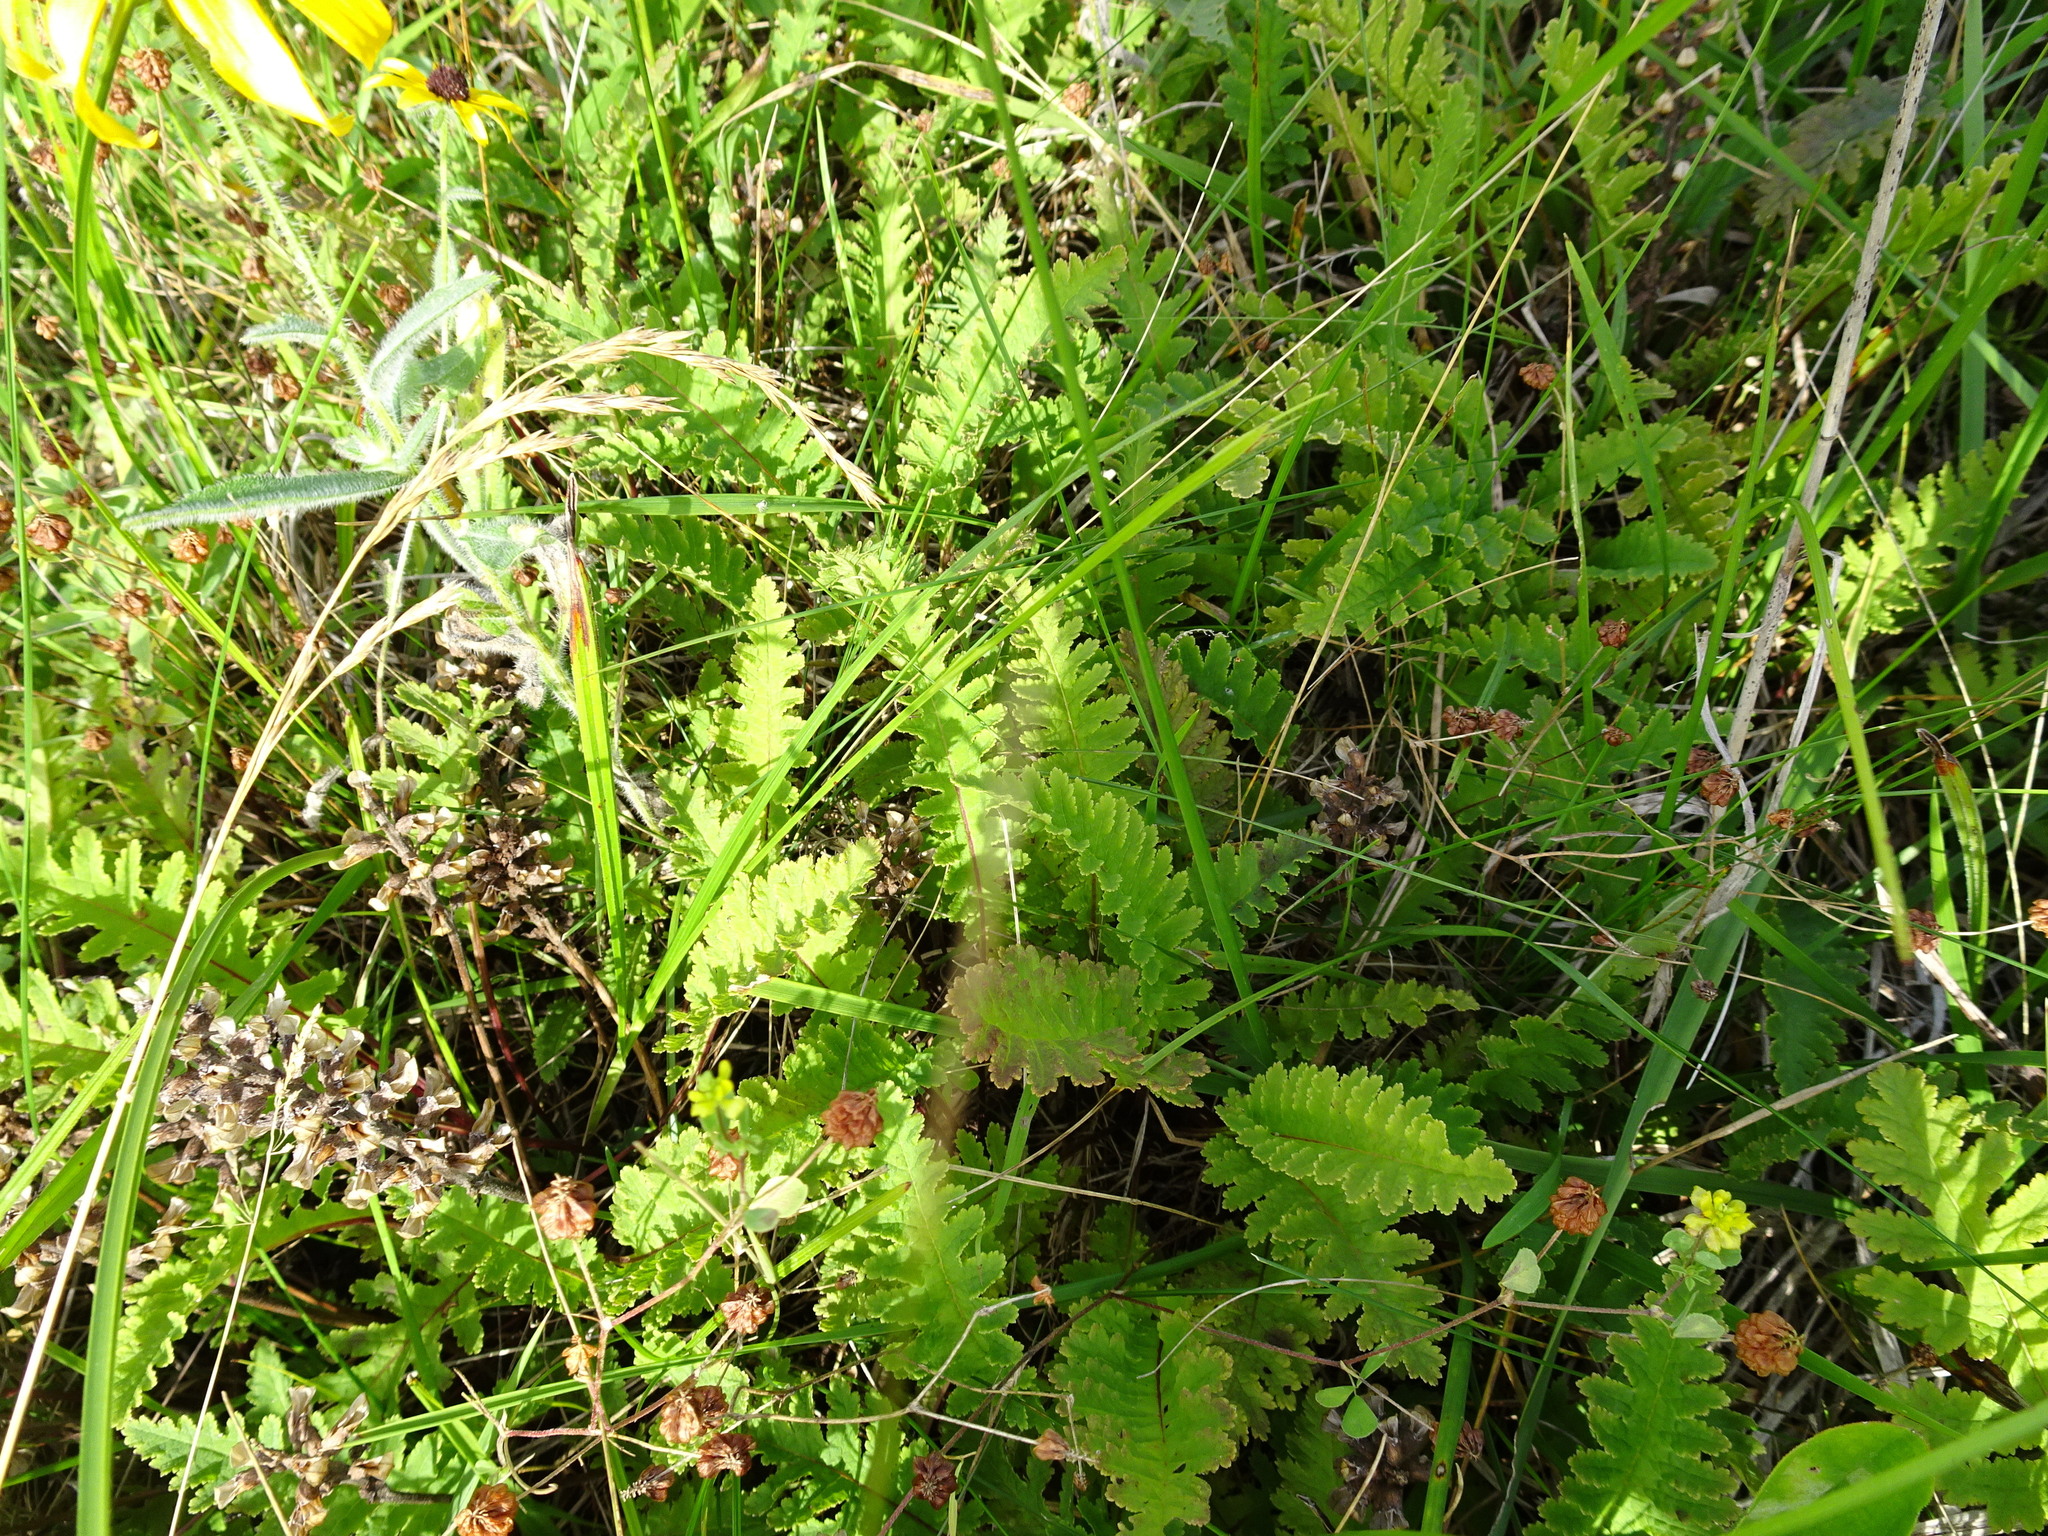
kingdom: Plantae
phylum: Tracheophyta
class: Magnoliopsida
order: Lamiales
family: Orobanchaceae
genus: Pedicularis
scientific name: Pedicularis canadensis
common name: Early lousewort
